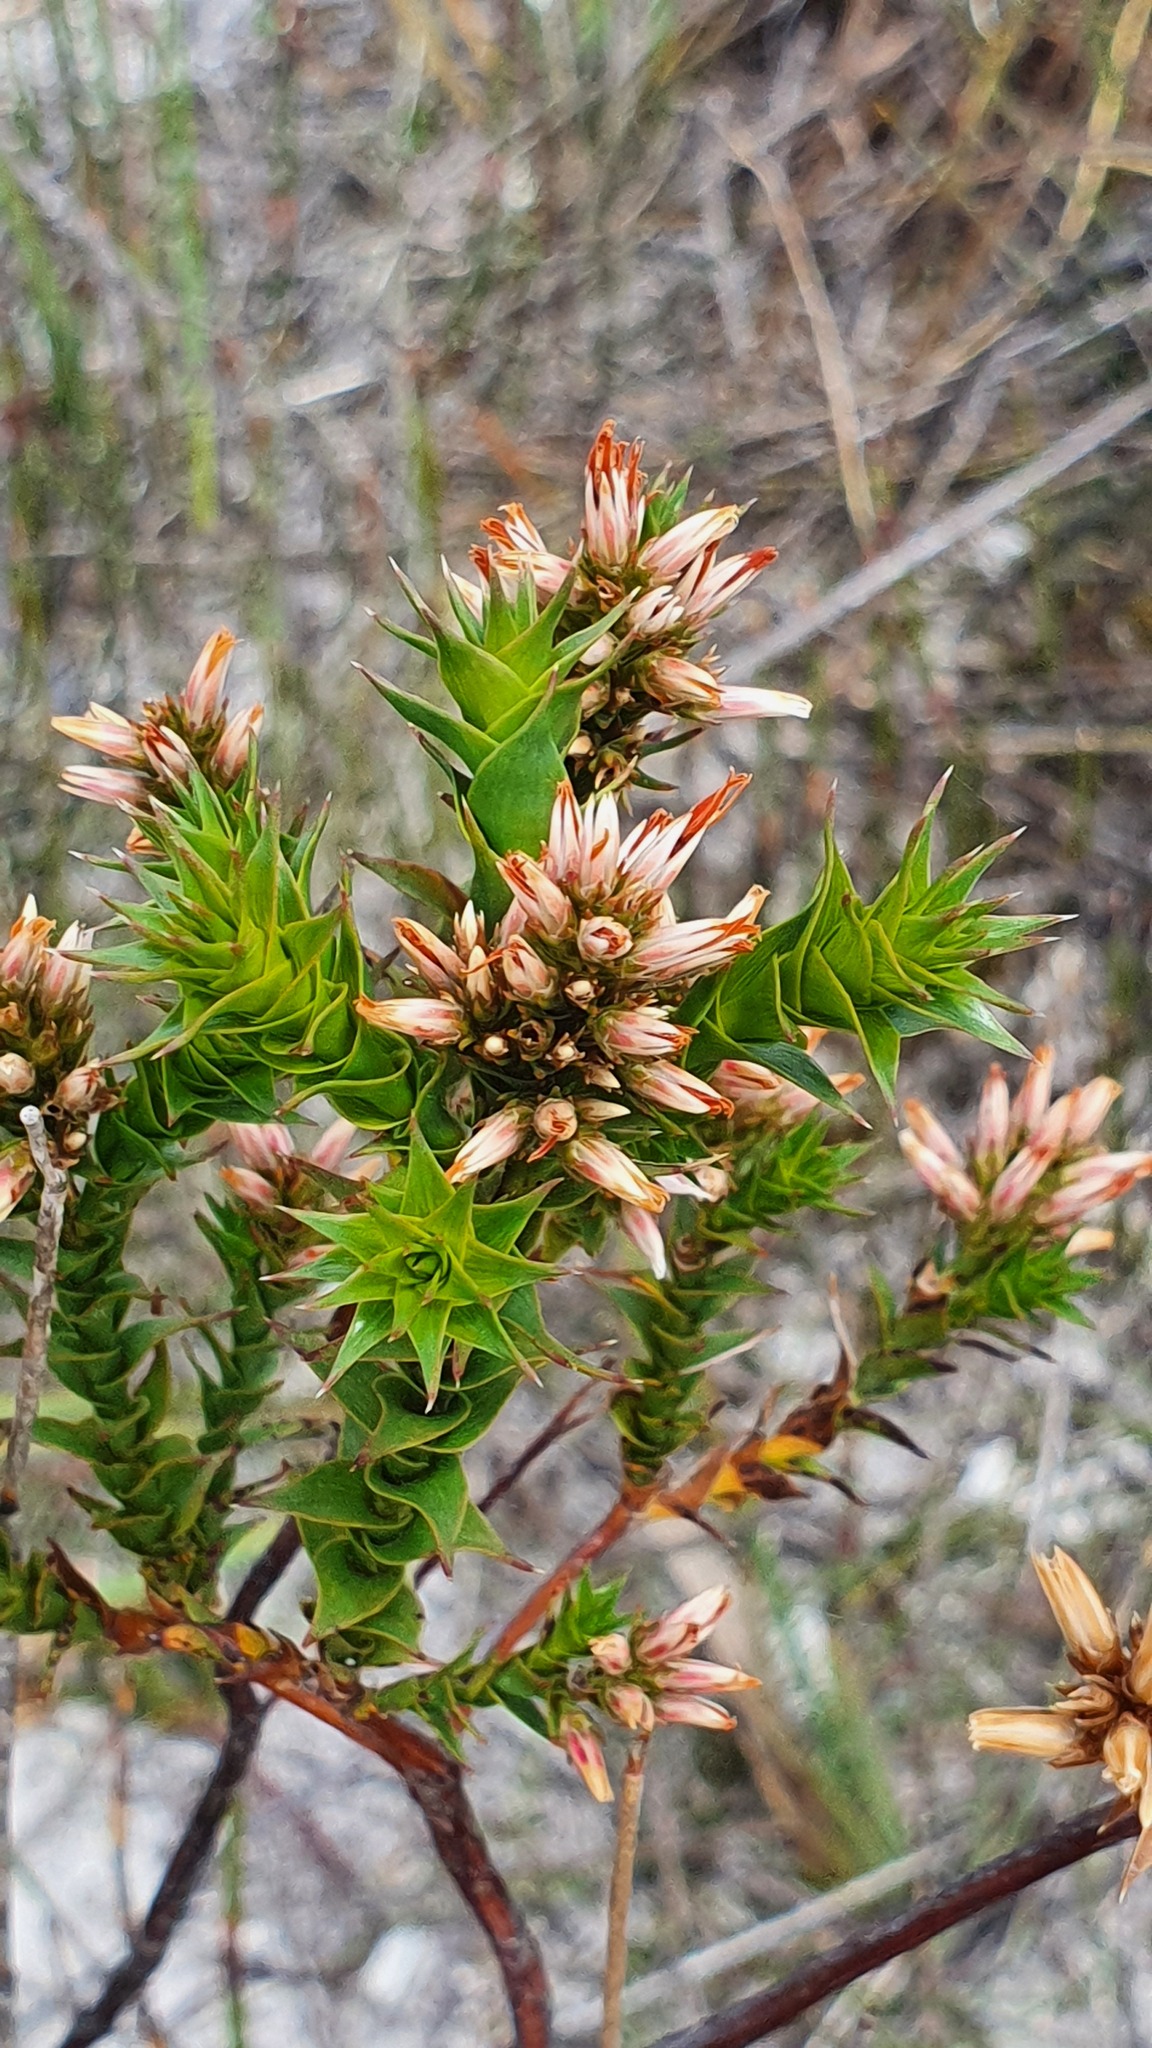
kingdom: Plantae
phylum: Tracheophyta
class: Magnoliopsida
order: Ericales
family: Ericaceae
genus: Sprengelia
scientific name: Sprengelia incarnata
